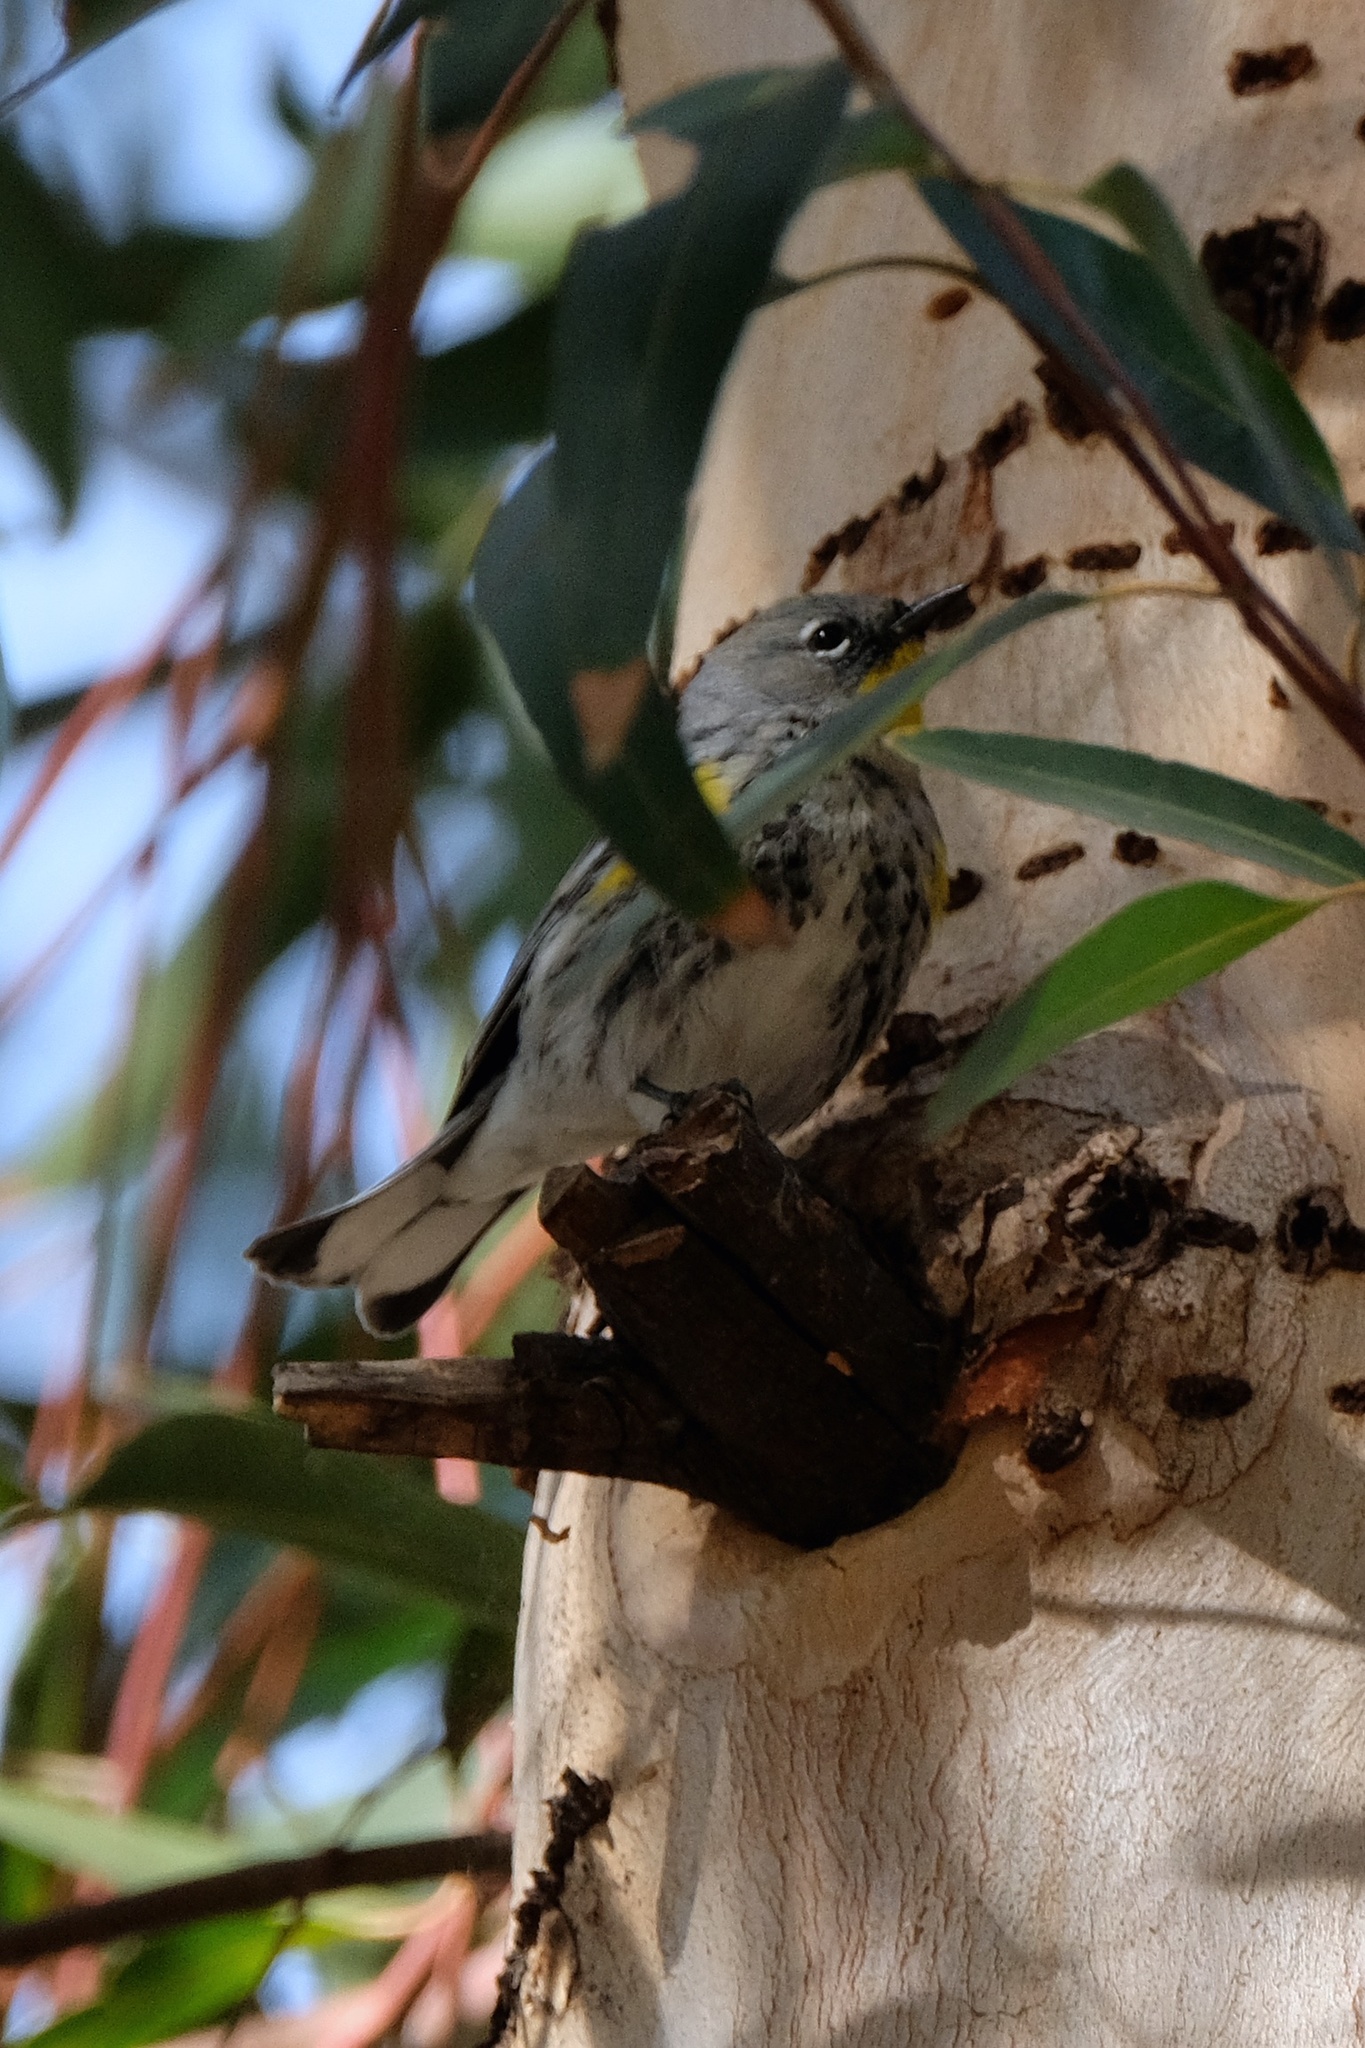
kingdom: Animalia
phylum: Chordata
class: Aves
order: Passeriformes
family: Parulidae
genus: Setophaga
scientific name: Setophaga auduboni
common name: Audubon's warbler
